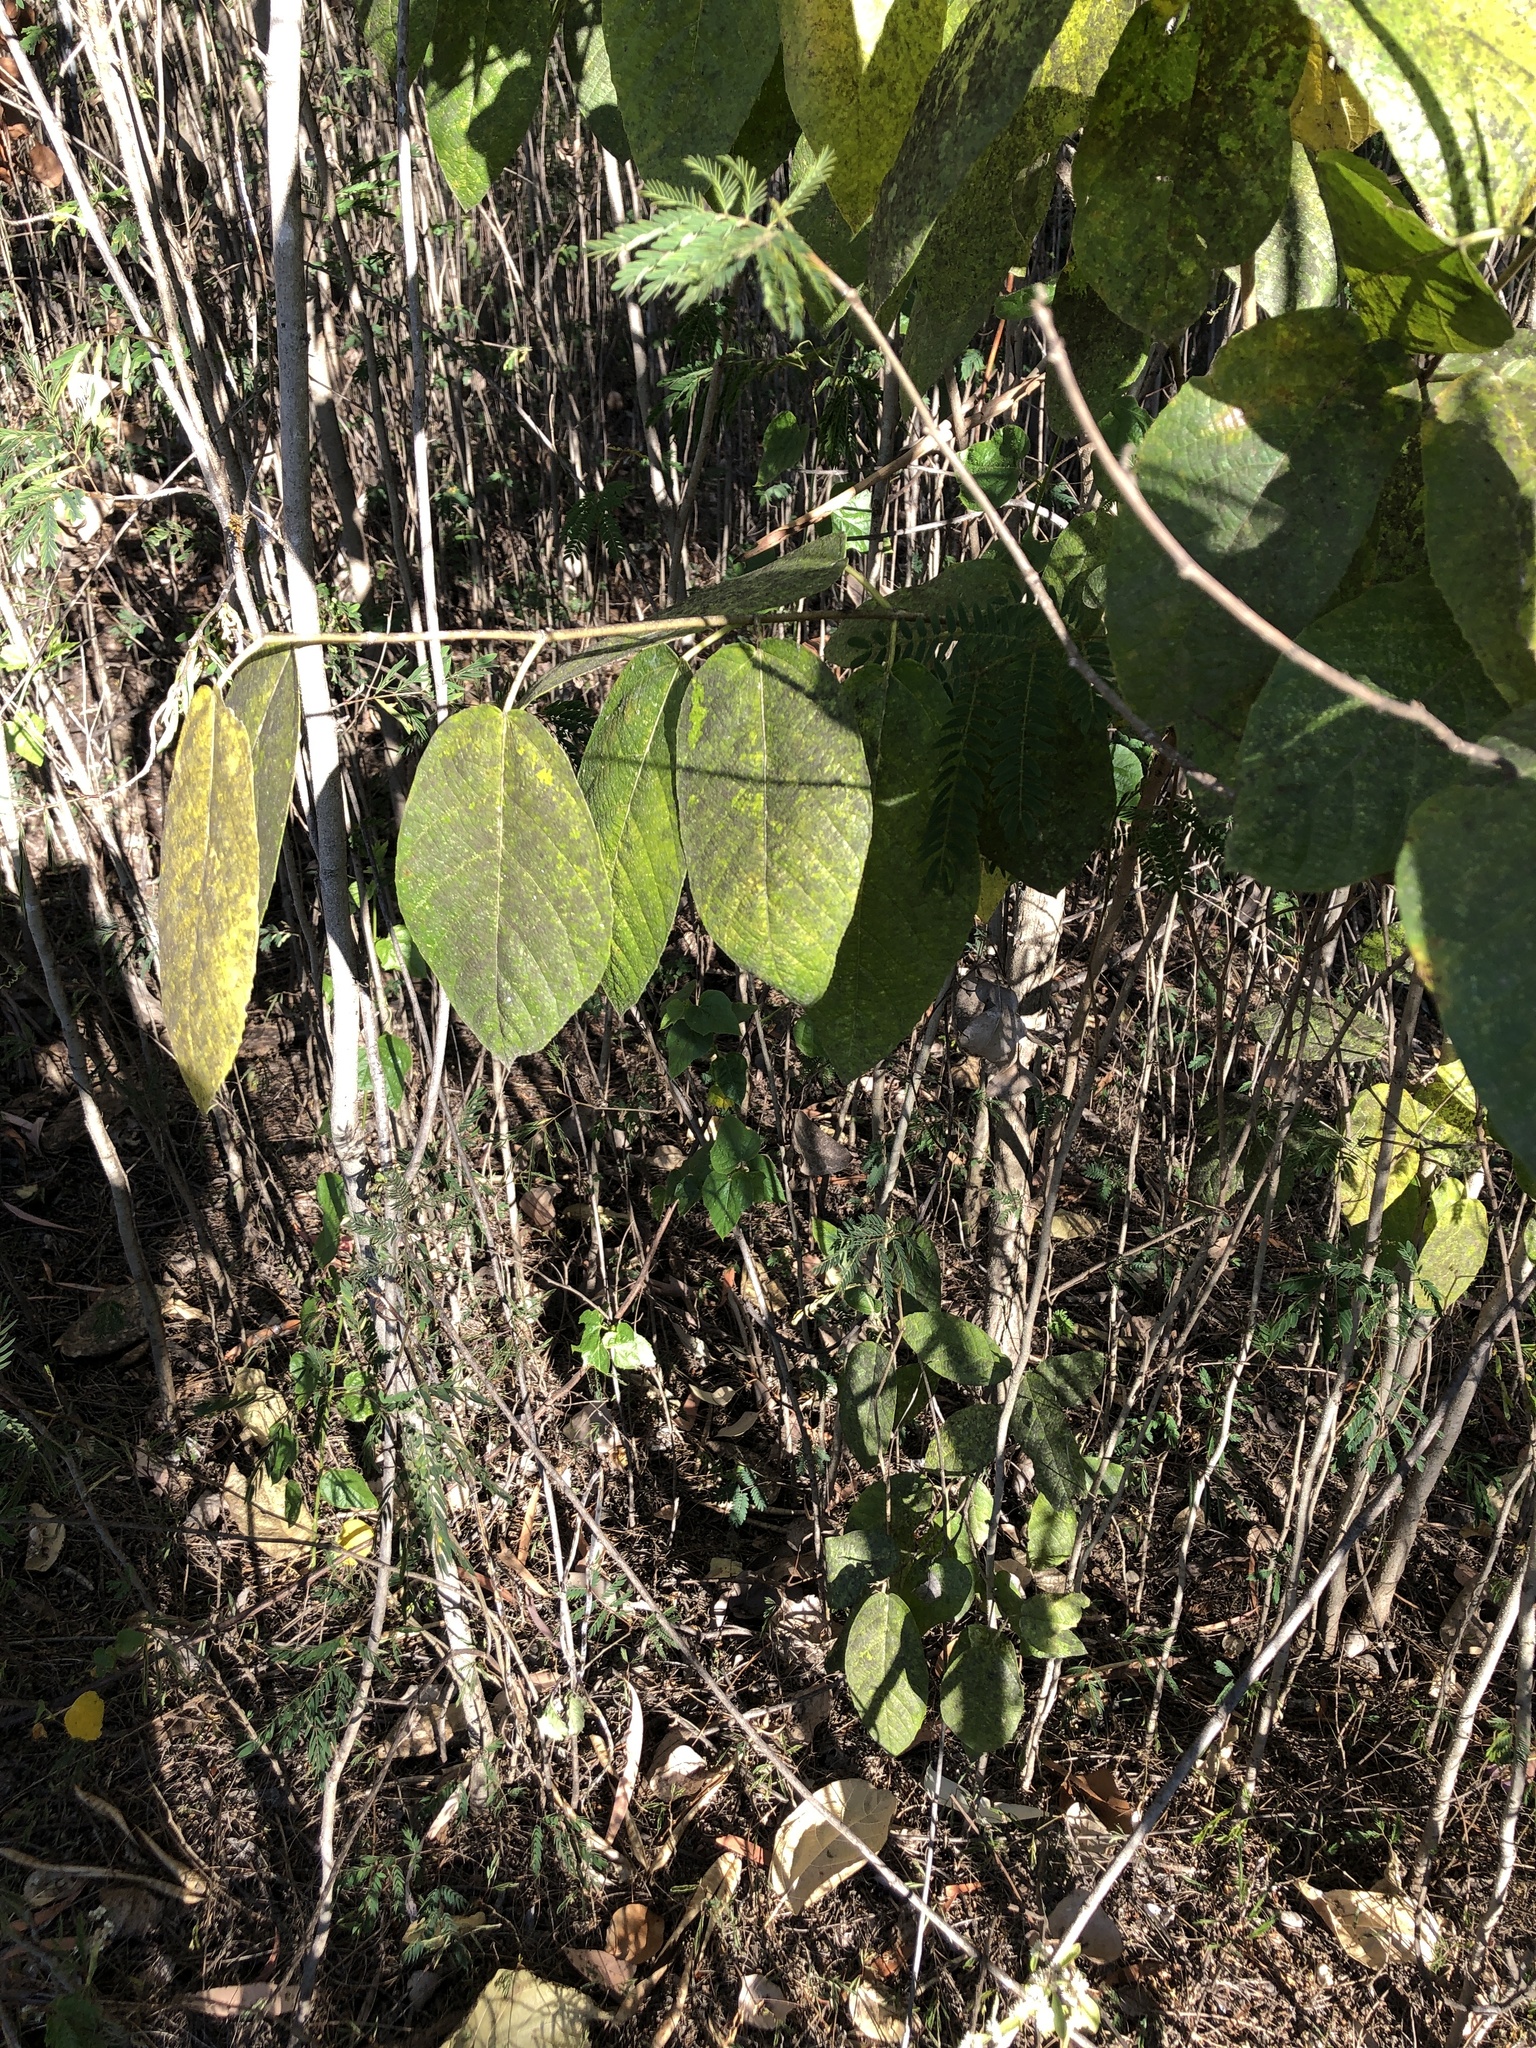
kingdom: Plantae
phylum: Tracheophyta
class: Magnoliopsida
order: Rosales
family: Moraceae
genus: Ficus
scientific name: Ficus opposita
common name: Figwood
